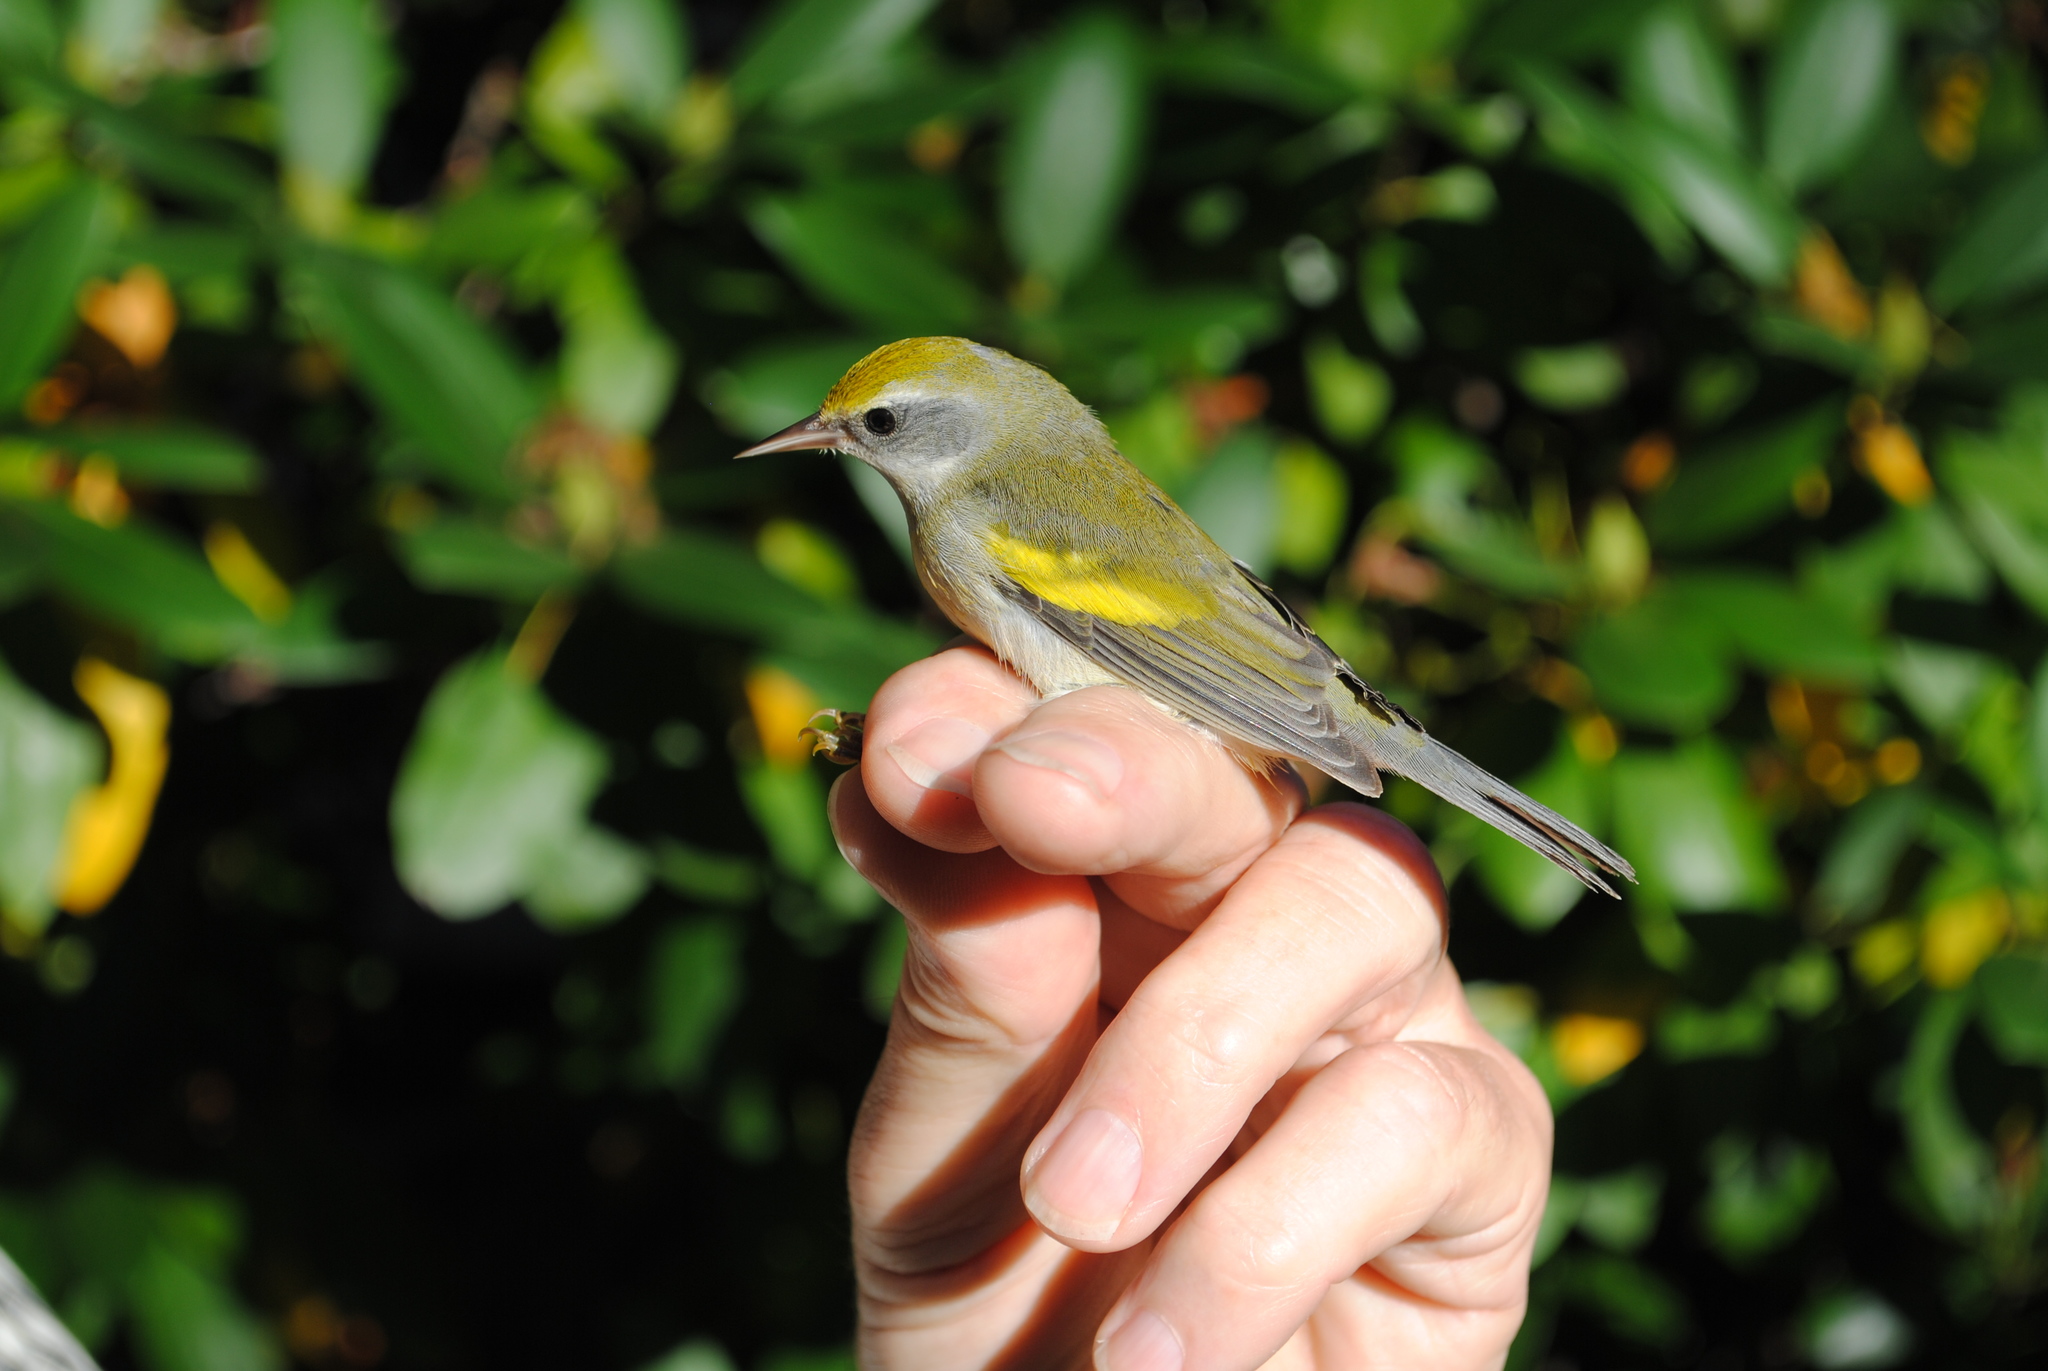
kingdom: Animalia
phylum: Chordata
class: Aves
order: Passeriformes
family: Parulidae
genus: Vermivora
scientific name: Vermivora chrysoptera
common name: Golden-winged warbler
